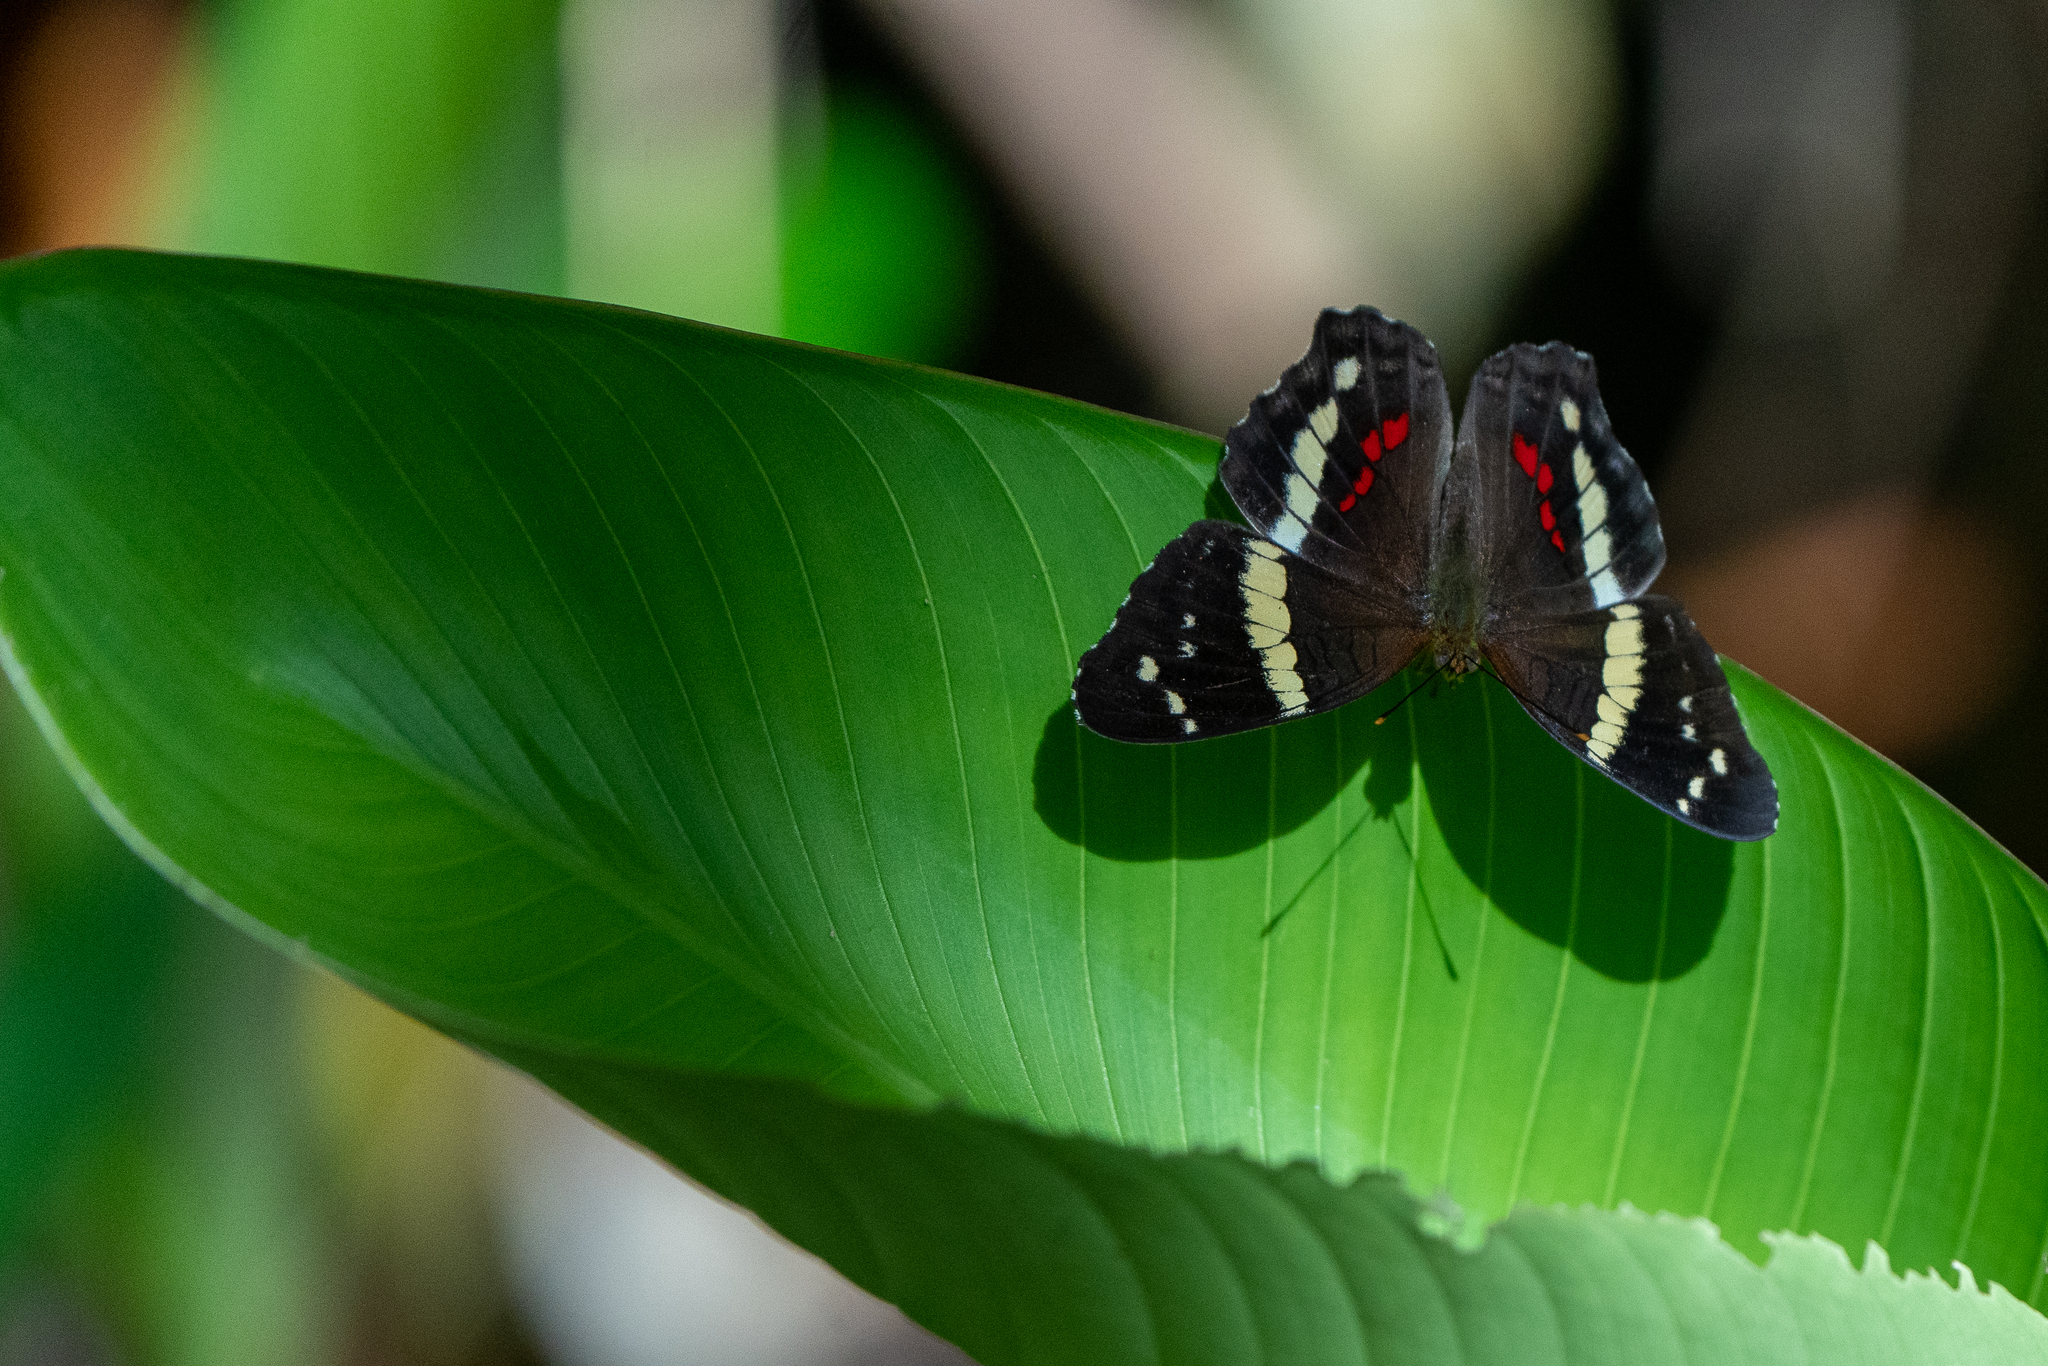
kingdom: Animalia
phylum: Arthropoda
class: Insecta
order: Lepidoptera
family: Nymphalidae
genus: Anartia
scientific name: Anartia fatima
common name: Banded peacock
